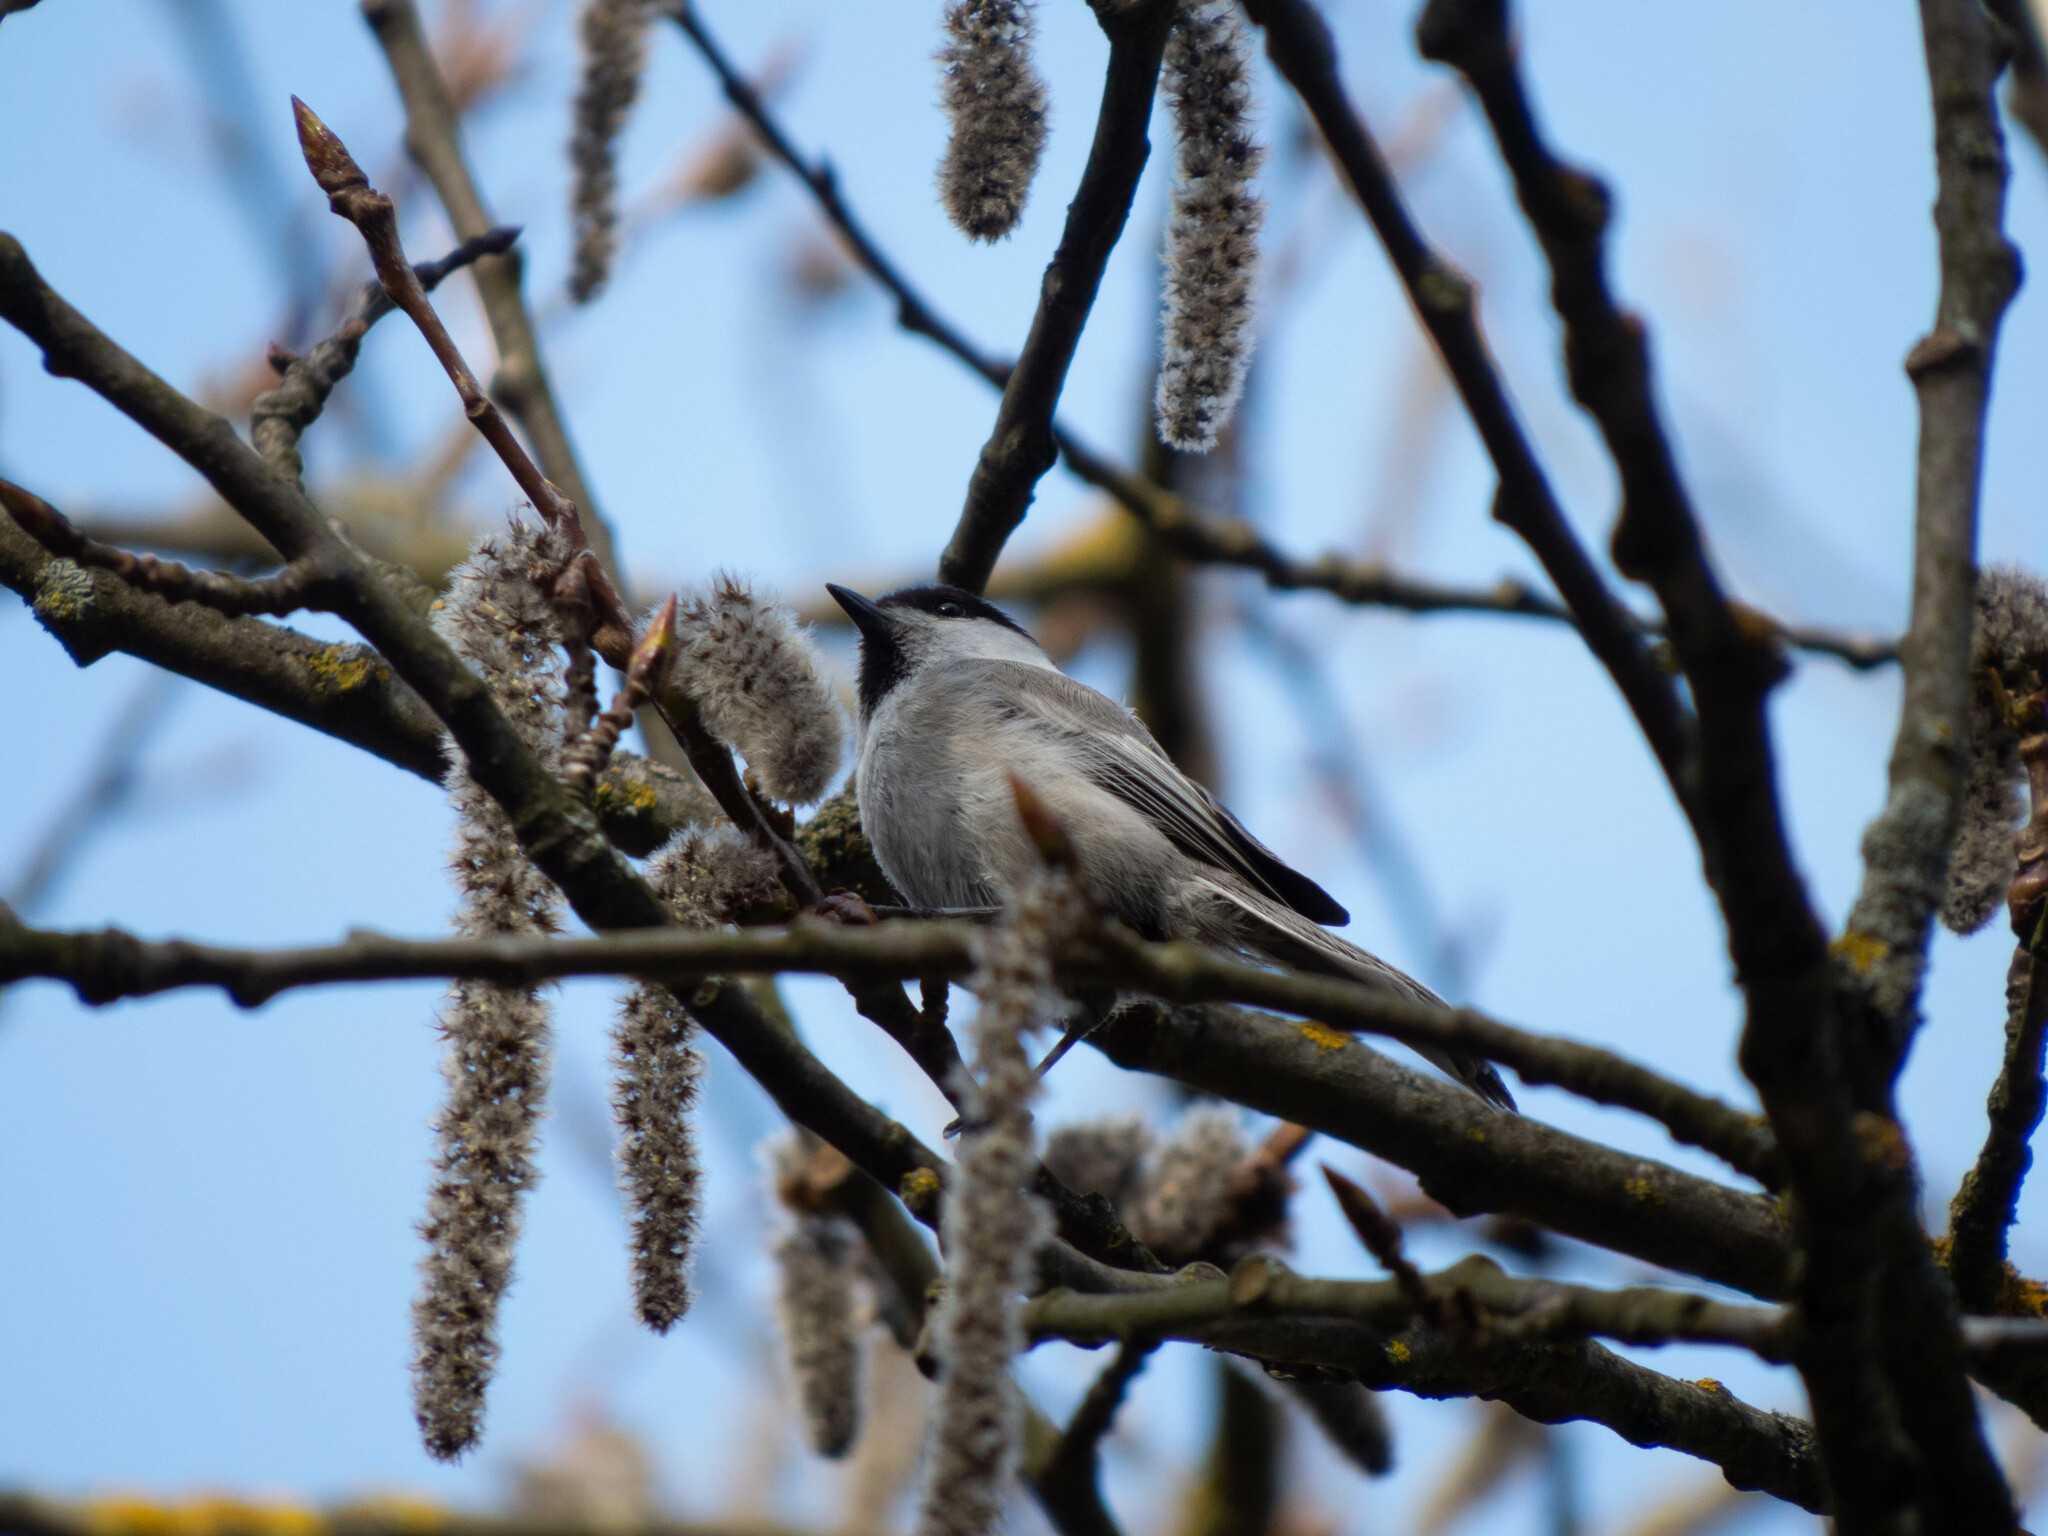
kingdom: Animalia
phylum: Chordata
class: Aves
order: Passeriformes
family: Paridae
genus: Poecile
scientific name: Poecile montanus
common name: Willow tit
